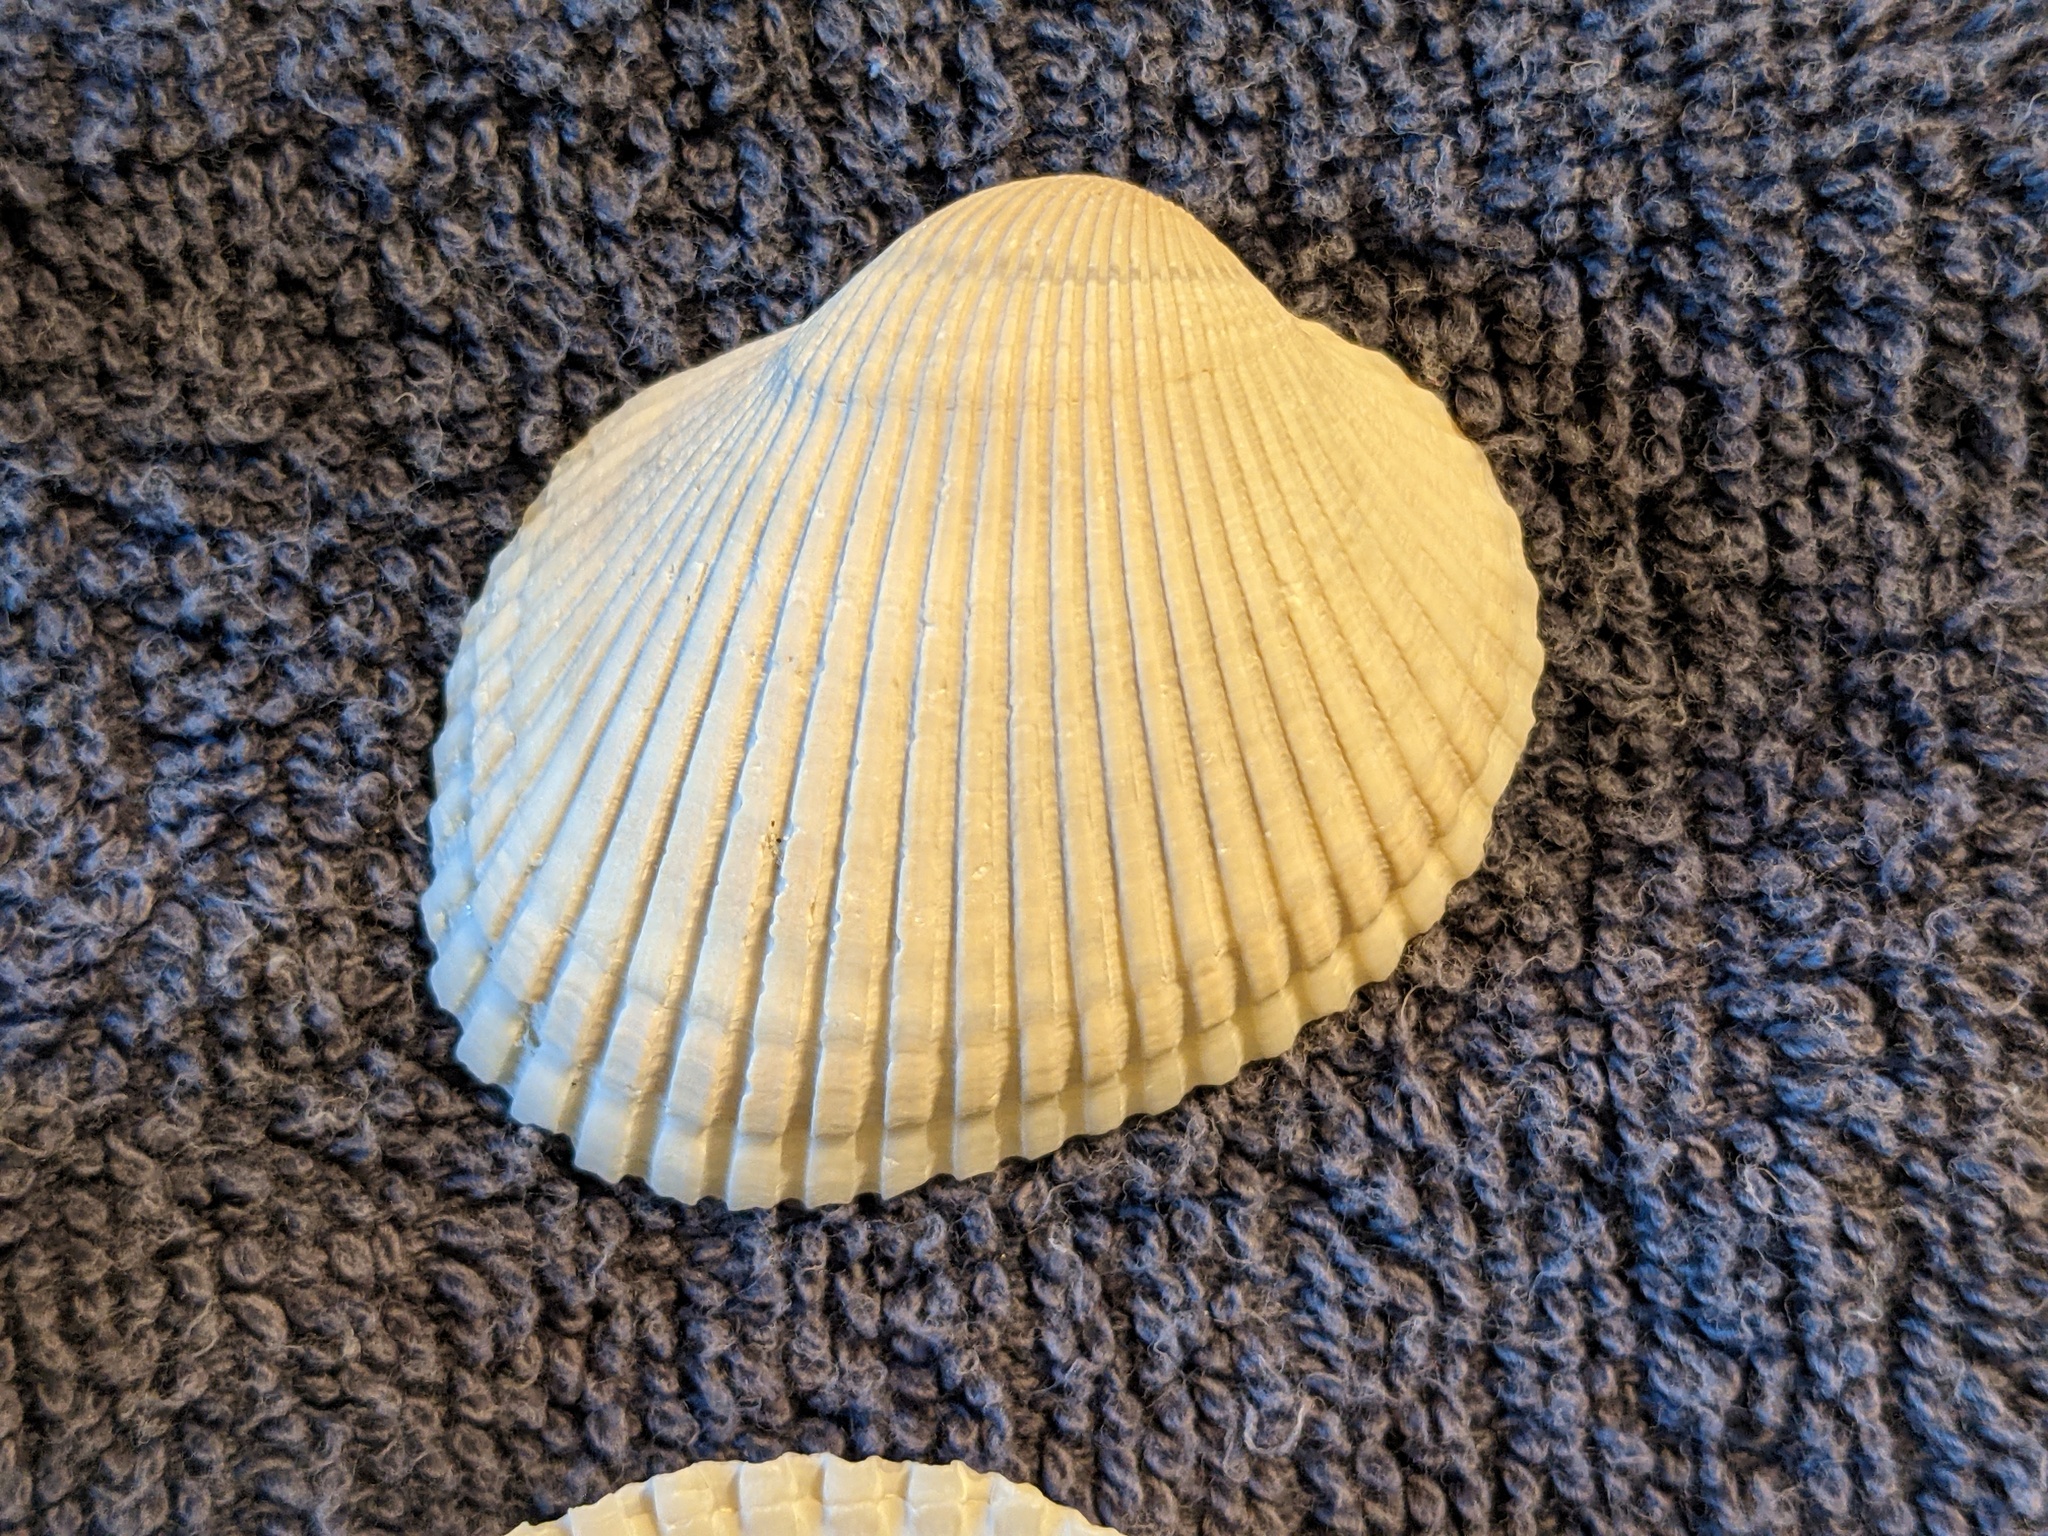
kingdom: Animalia
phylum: Mollusca
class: Bivalvia
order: Arcida
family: Arcidae
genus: Lunarca
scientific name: Lunarca ovalis
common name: Blood ark
